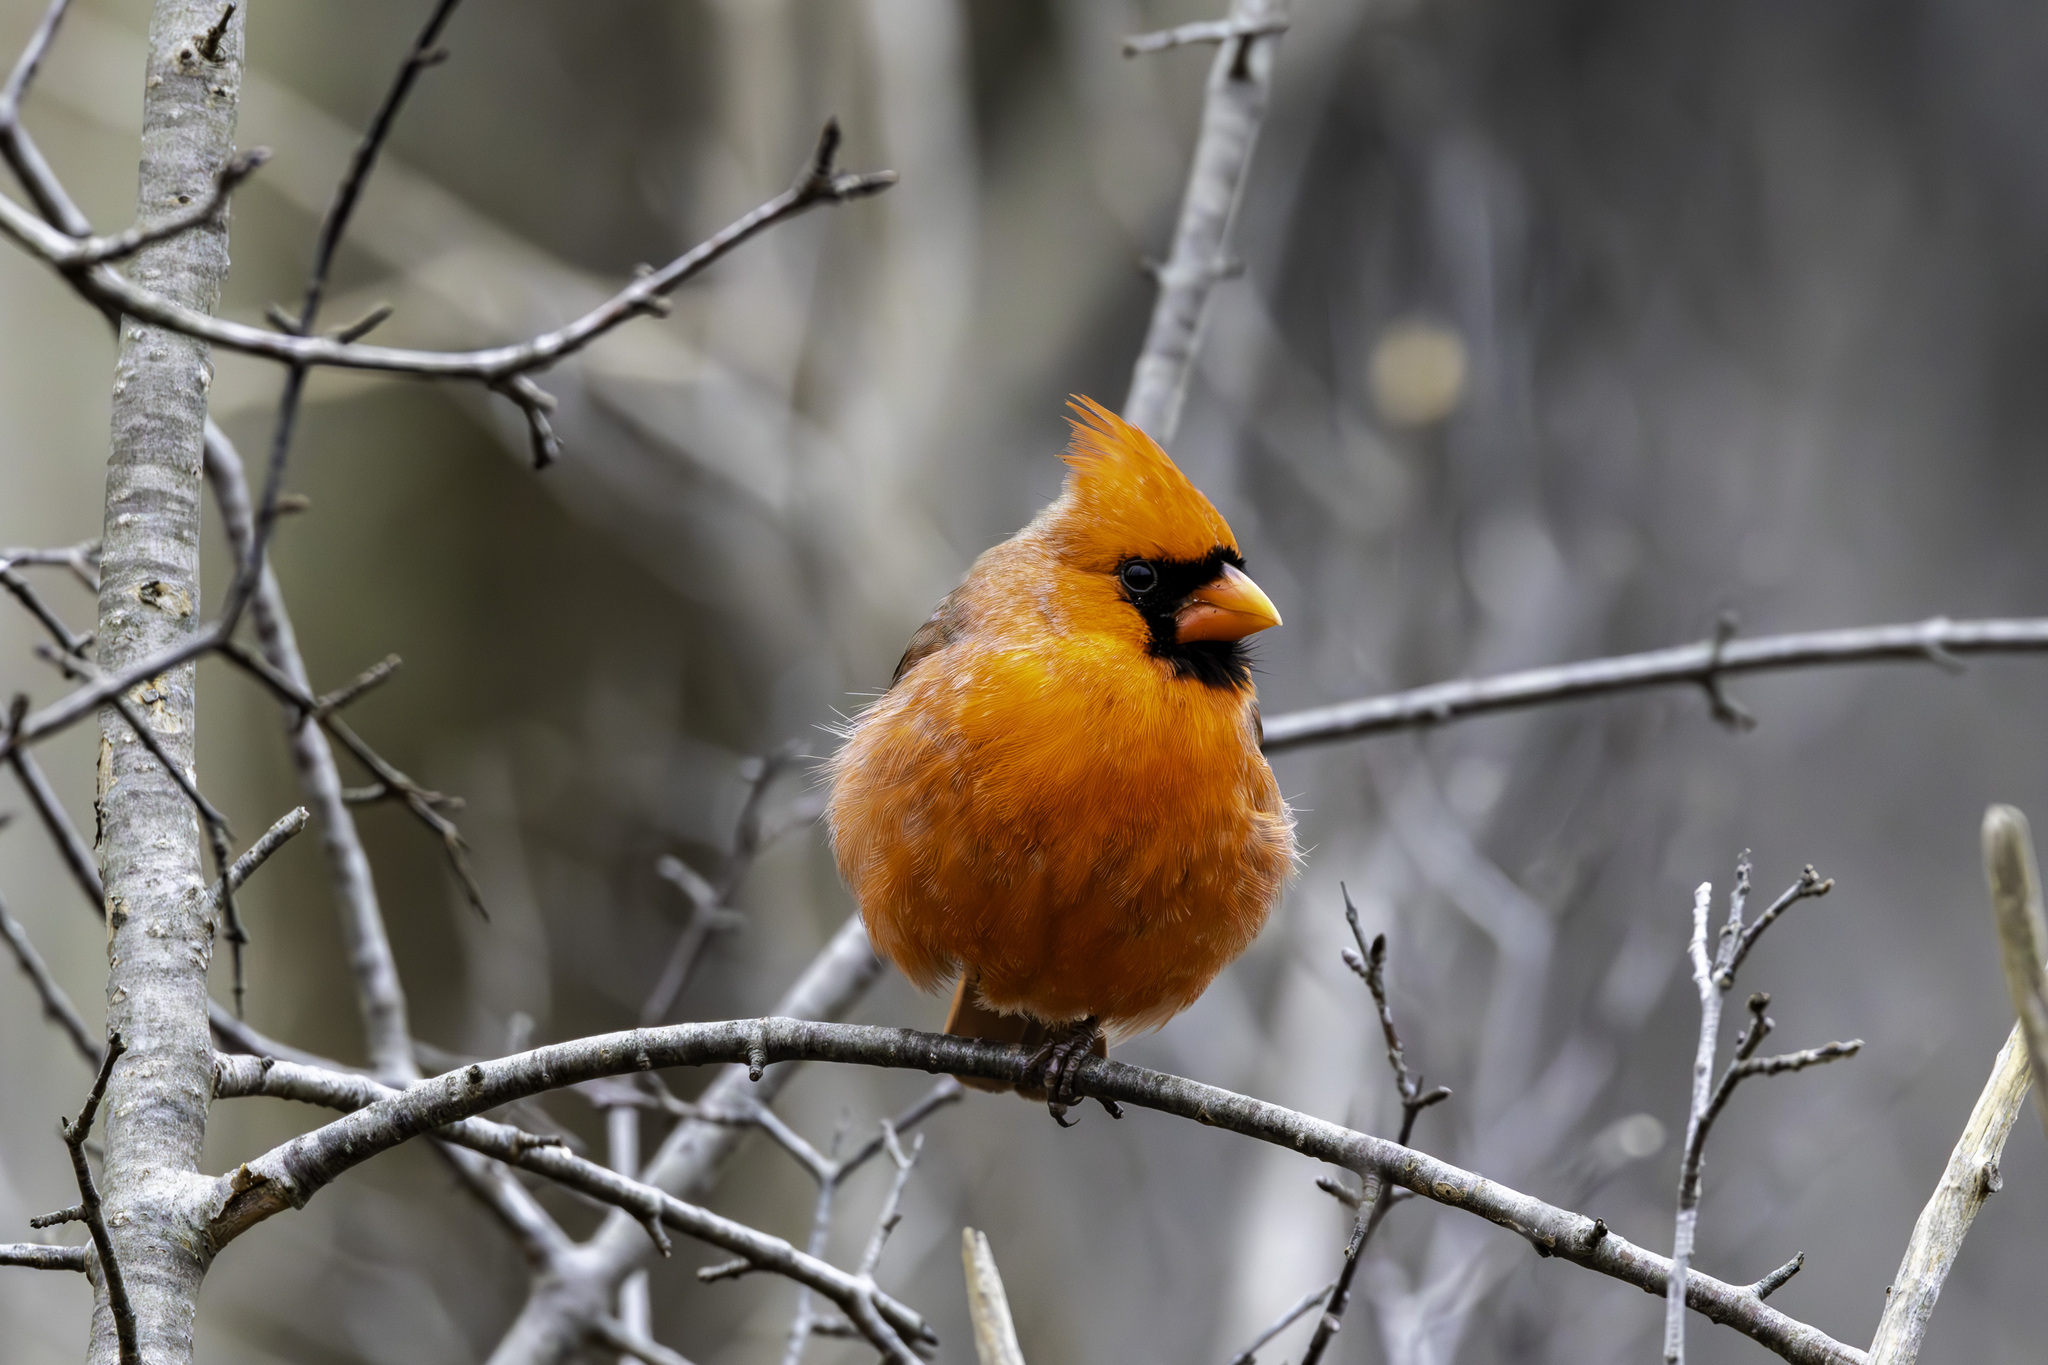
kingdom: Animalia
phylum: Chordata
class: Aves
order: Passeriformes
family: Cardinalidae
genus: Cardinalis
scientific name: Cardinalis cardinalis
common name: Northern cardinal
